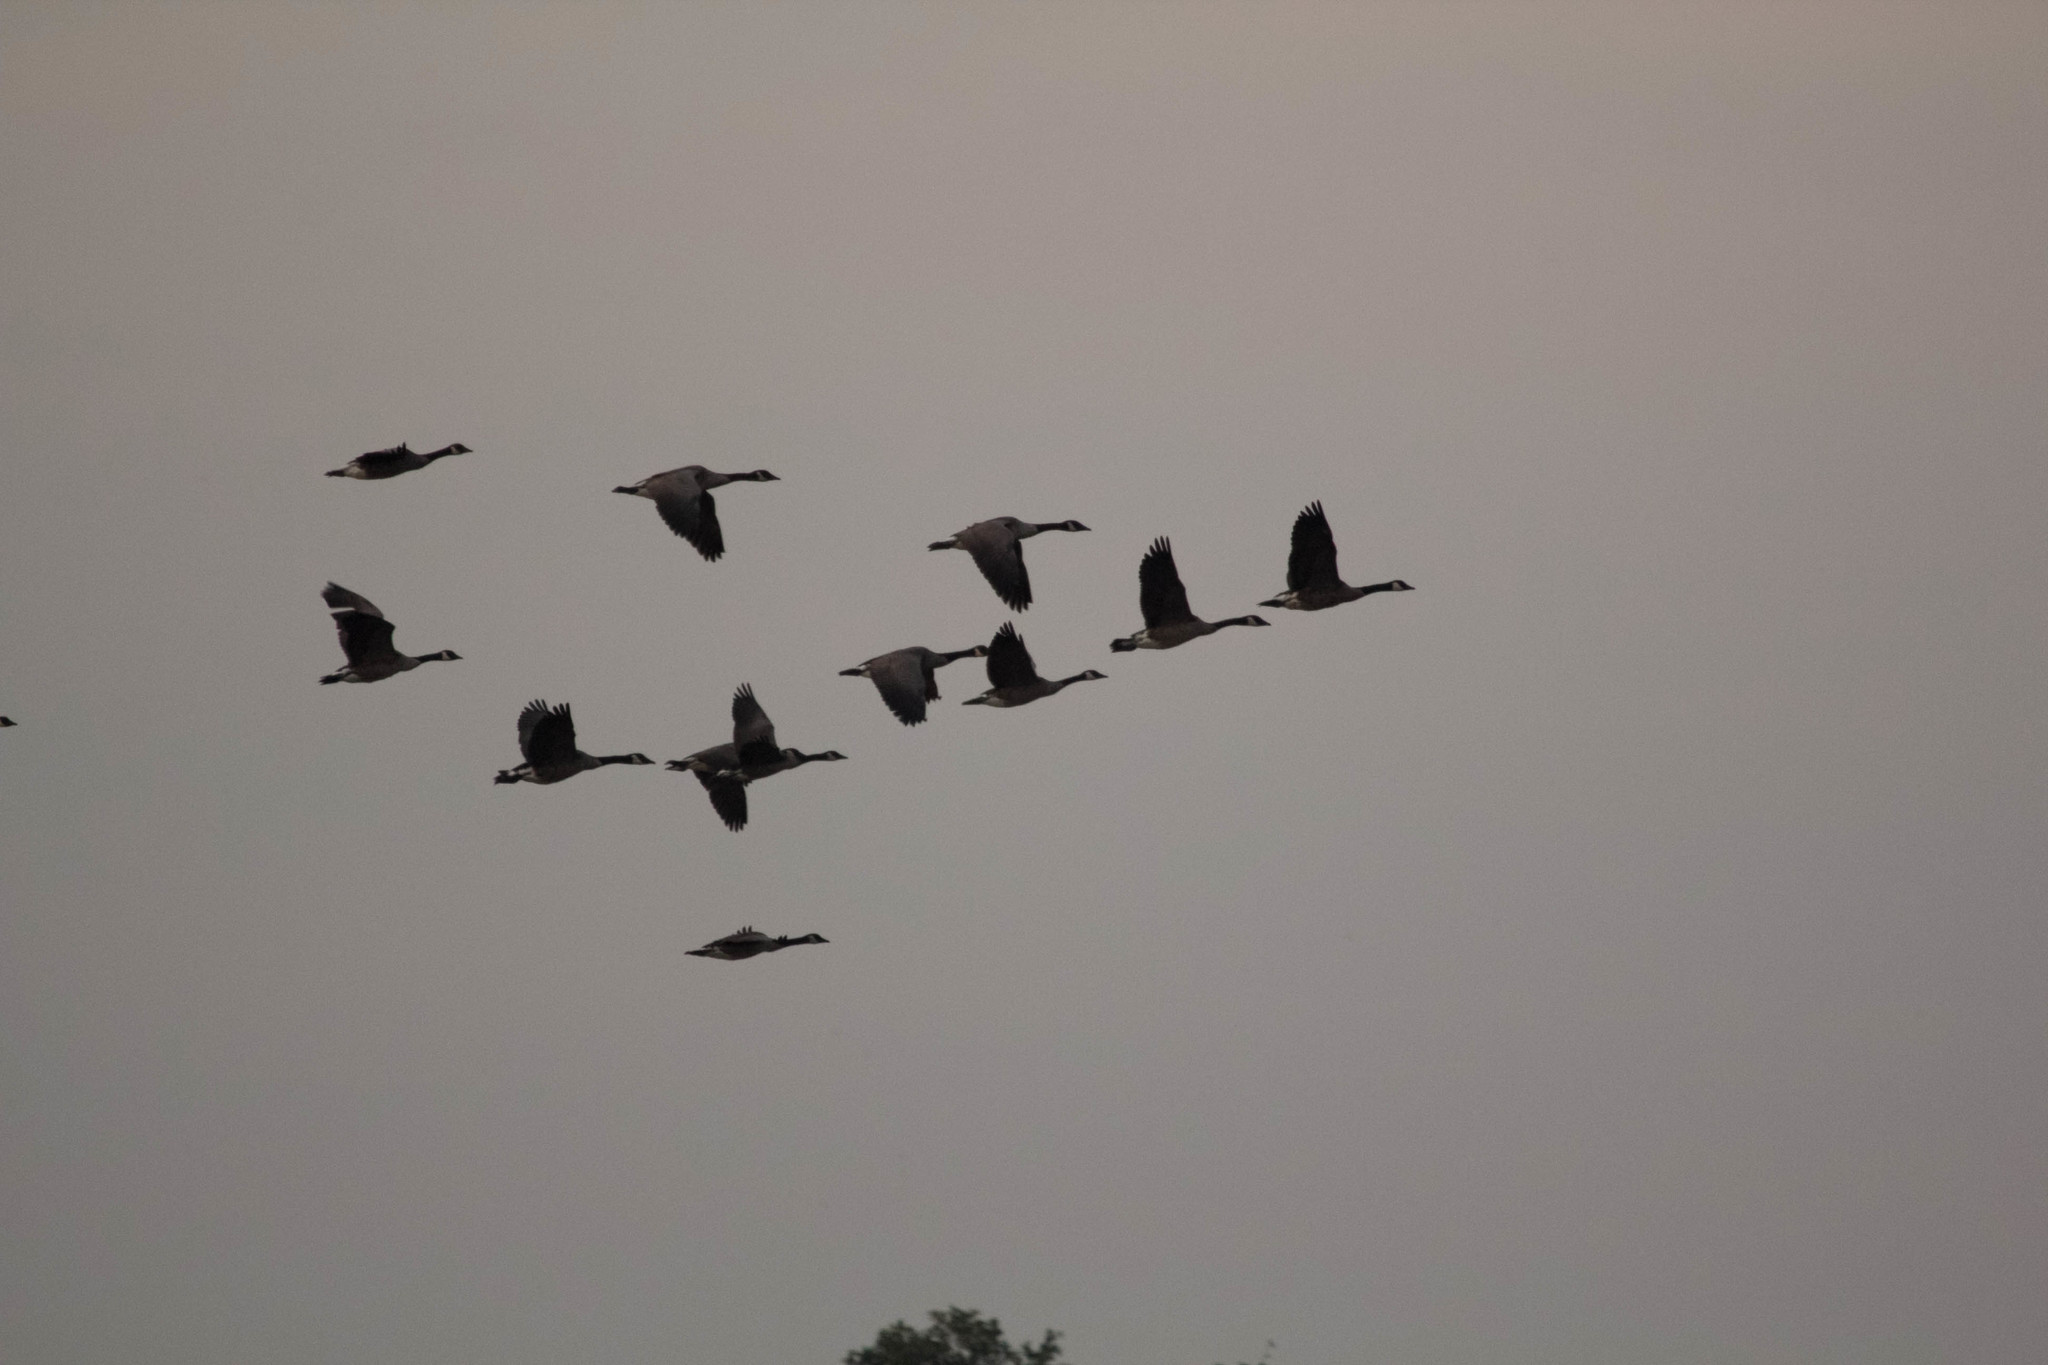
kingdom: Animalia
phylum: Chordata
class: Aves
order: Anseriformes
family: Anatidae
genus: Branta
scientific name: Branta canadensis
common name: Canada goose
